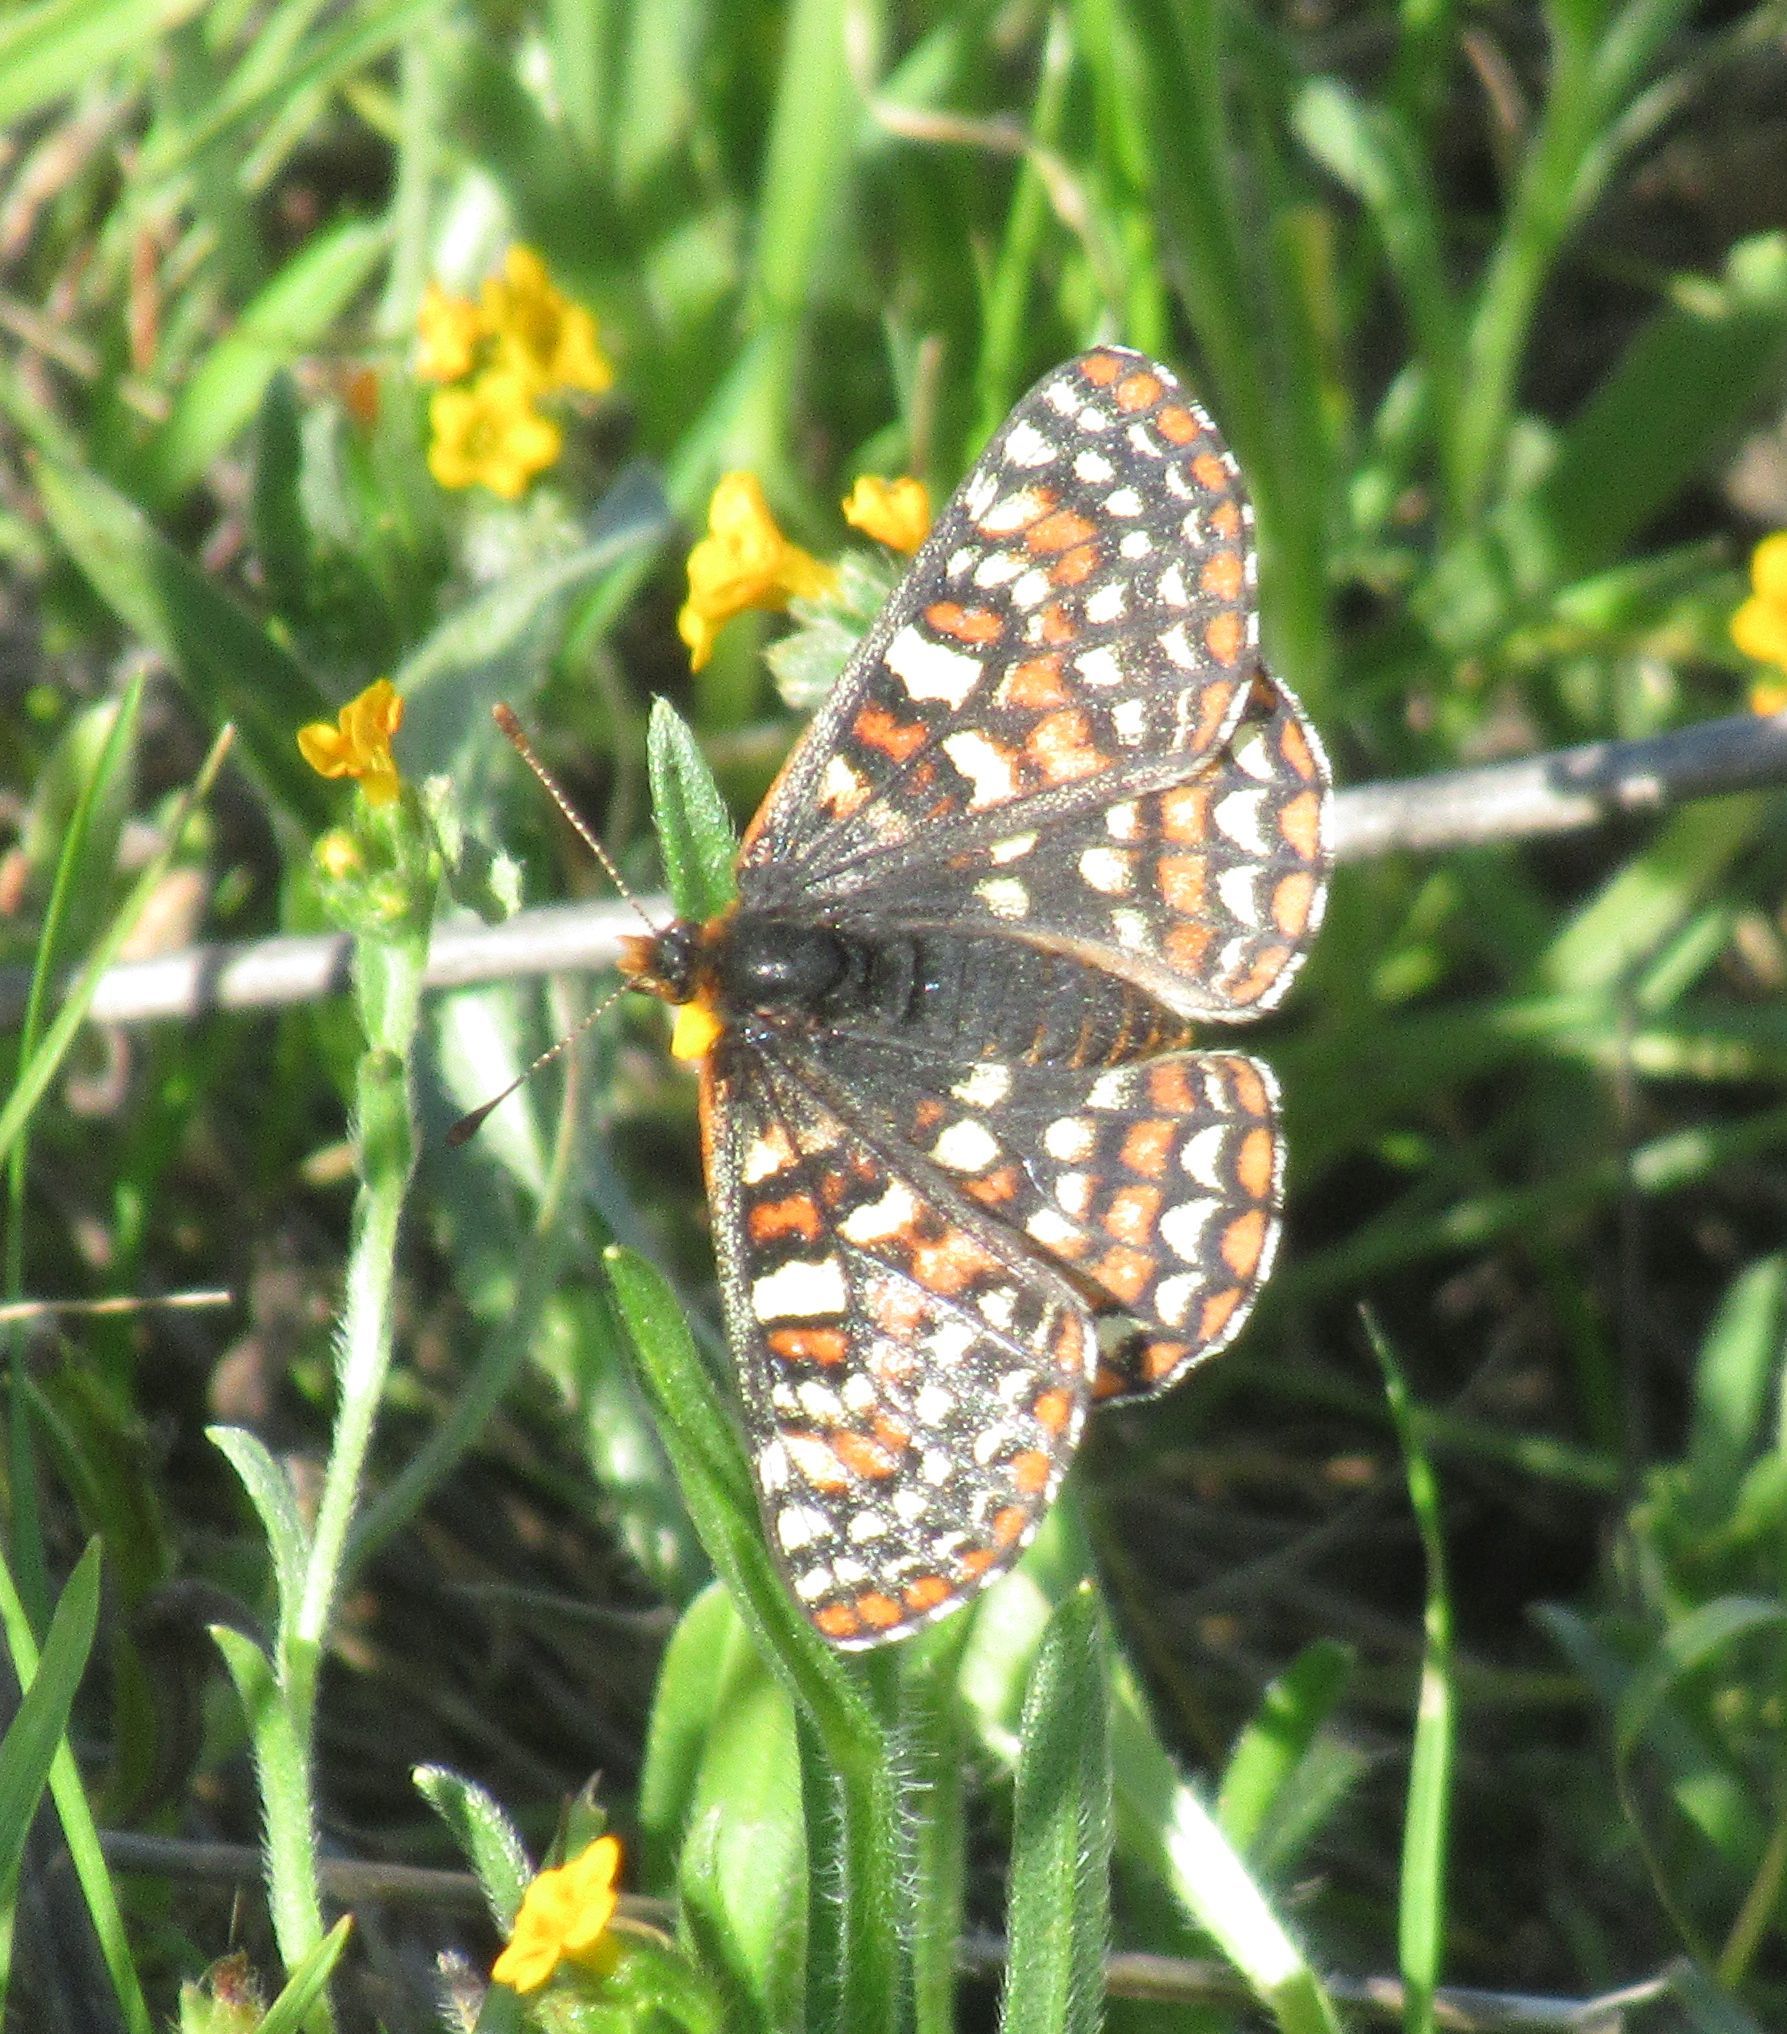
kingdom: Animalia
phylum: Arthropoda
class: Insecta
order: Lepidoptera
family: Nymphalidae
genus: Occidryas
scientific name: Occidryas editha
